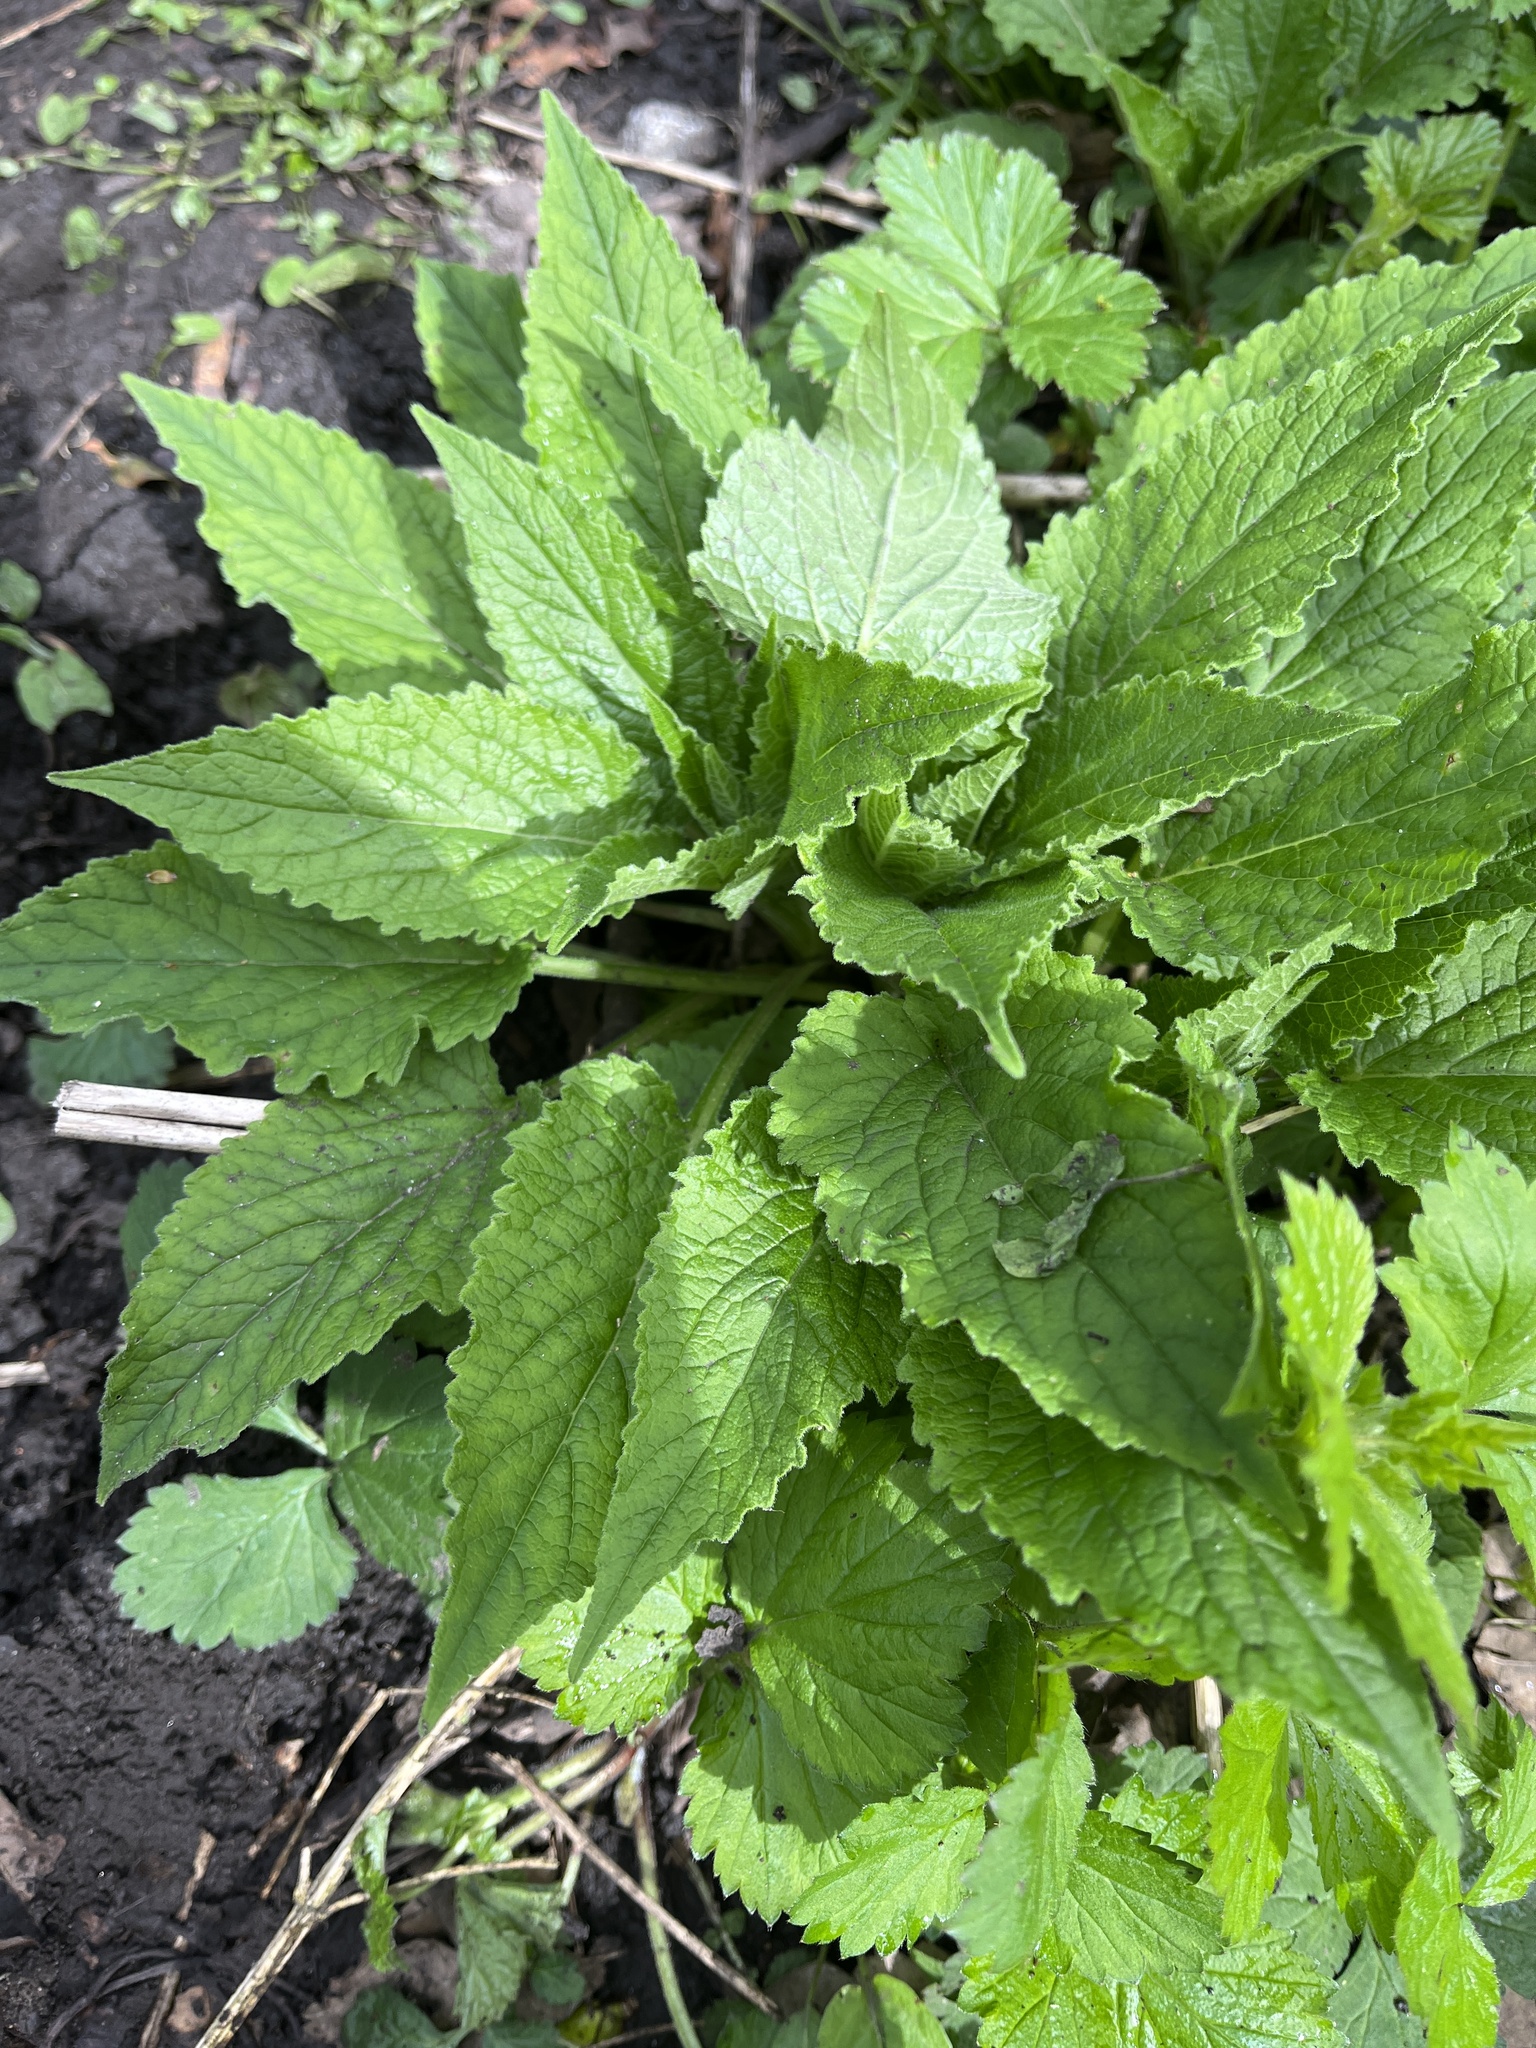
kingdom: Plantae
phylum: Tracheophyta
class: Magnoliopsida
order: Asterales
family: Campanulaceae
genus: Campanula
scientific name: Campanula latifolia
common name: Giant bellflower
